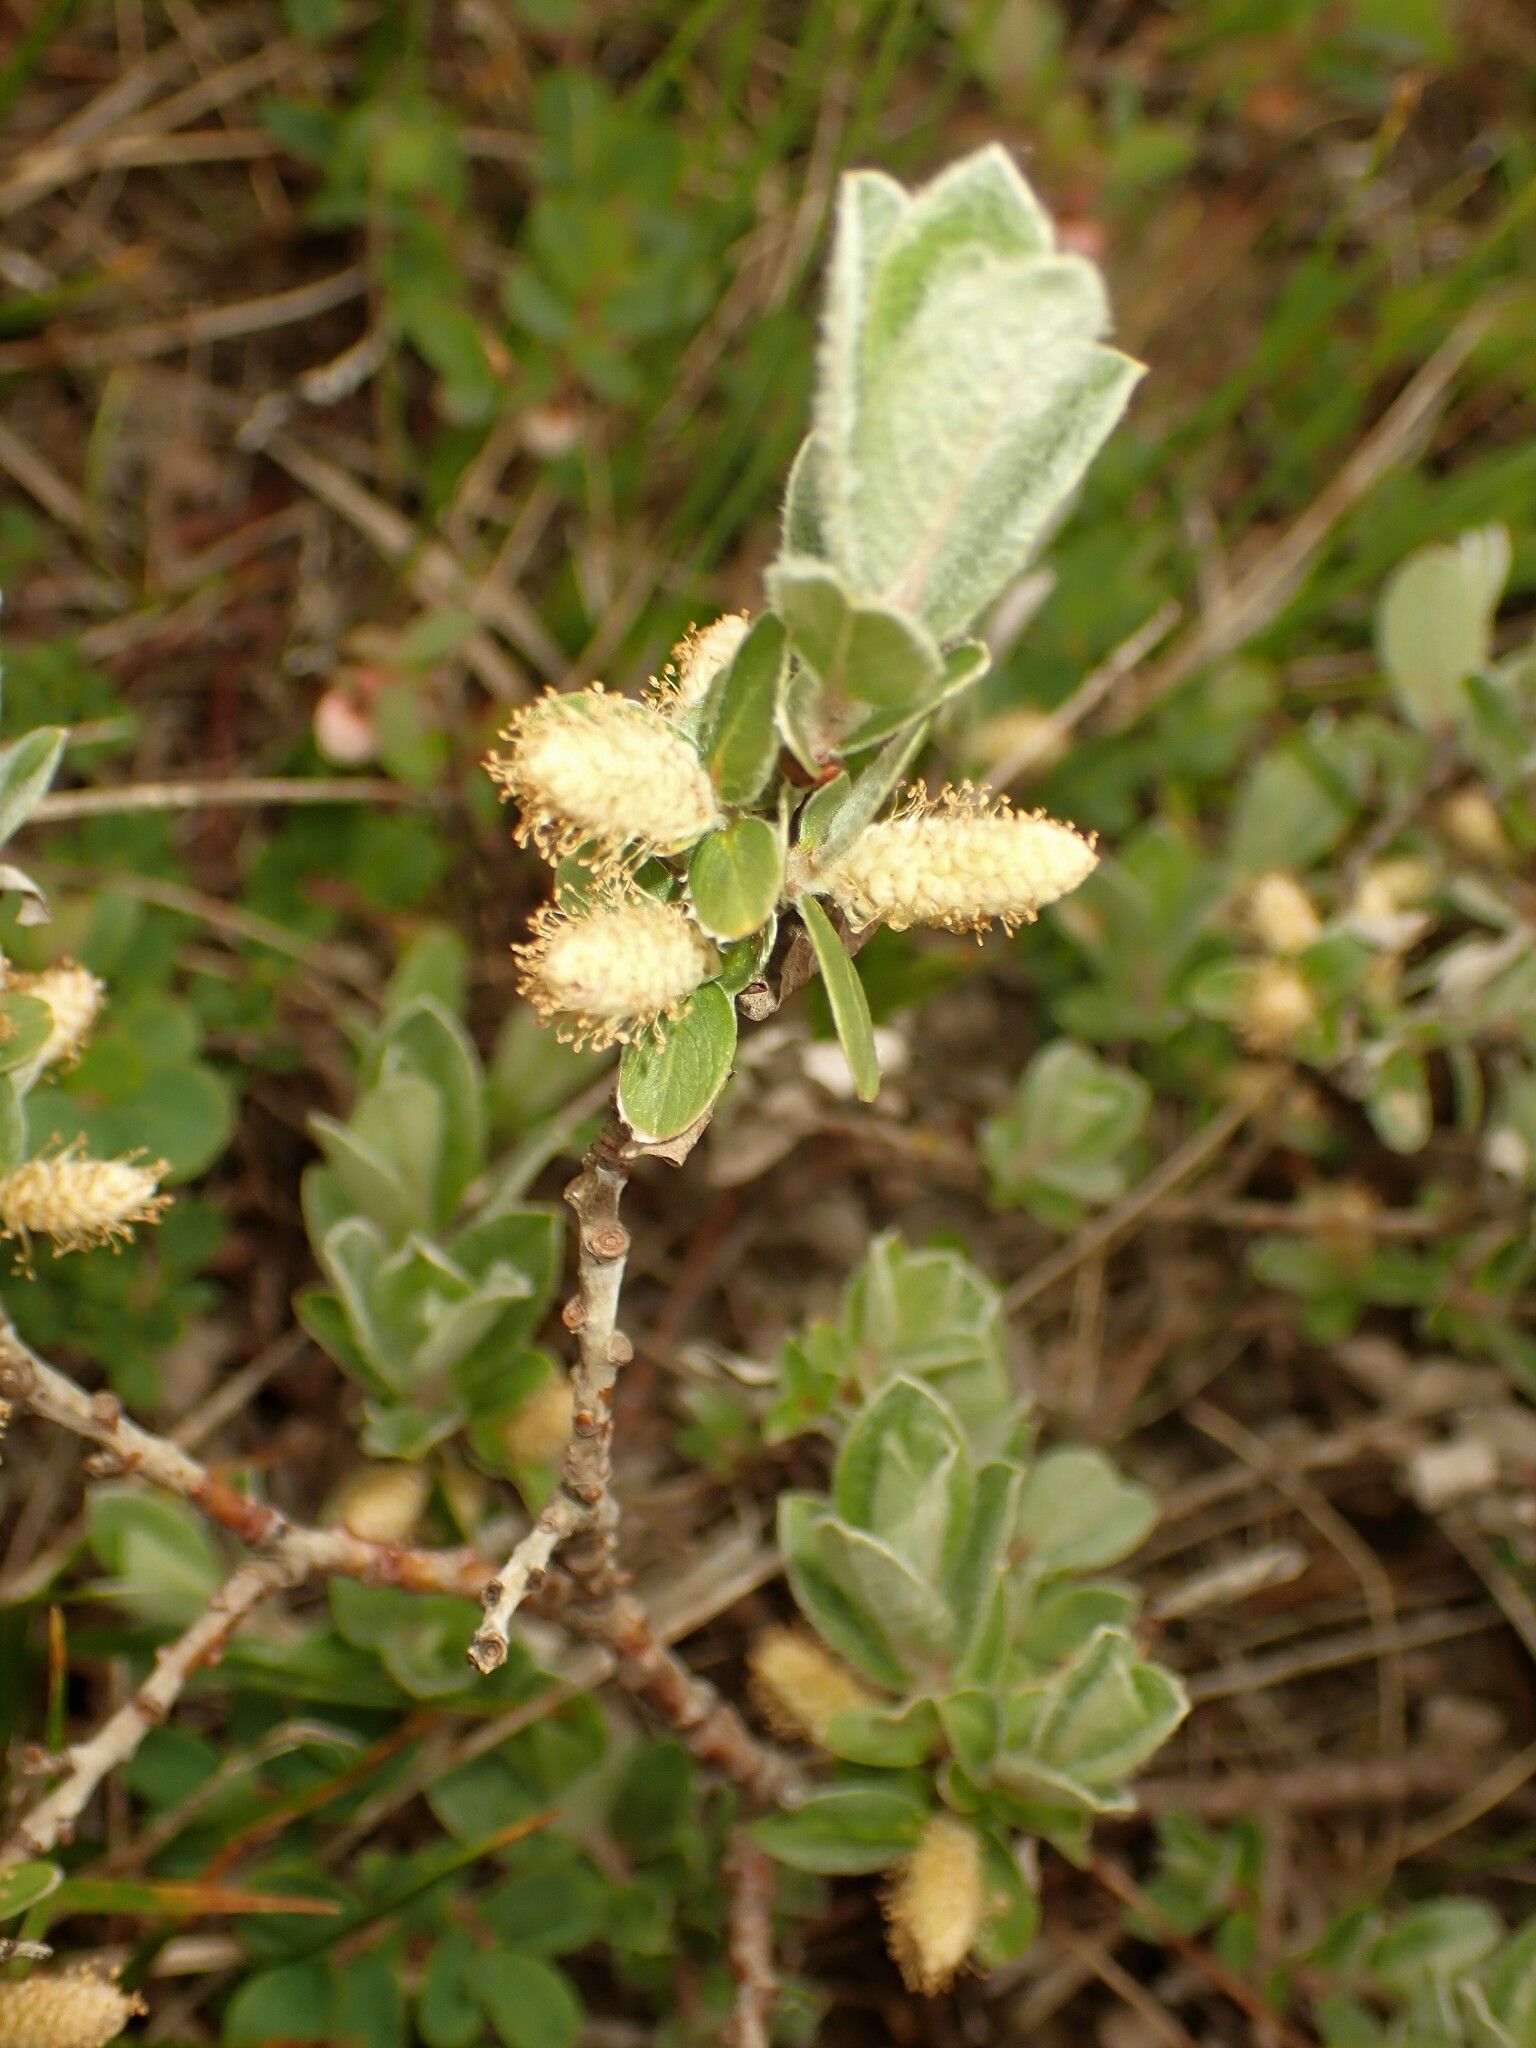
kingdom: Plantae
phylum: Tracheophyta
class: Magnoliopsida
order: Malpighiales
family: Salicaceae
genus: Salix
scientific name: Salix brachycarpa
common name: Barren-ground willow
